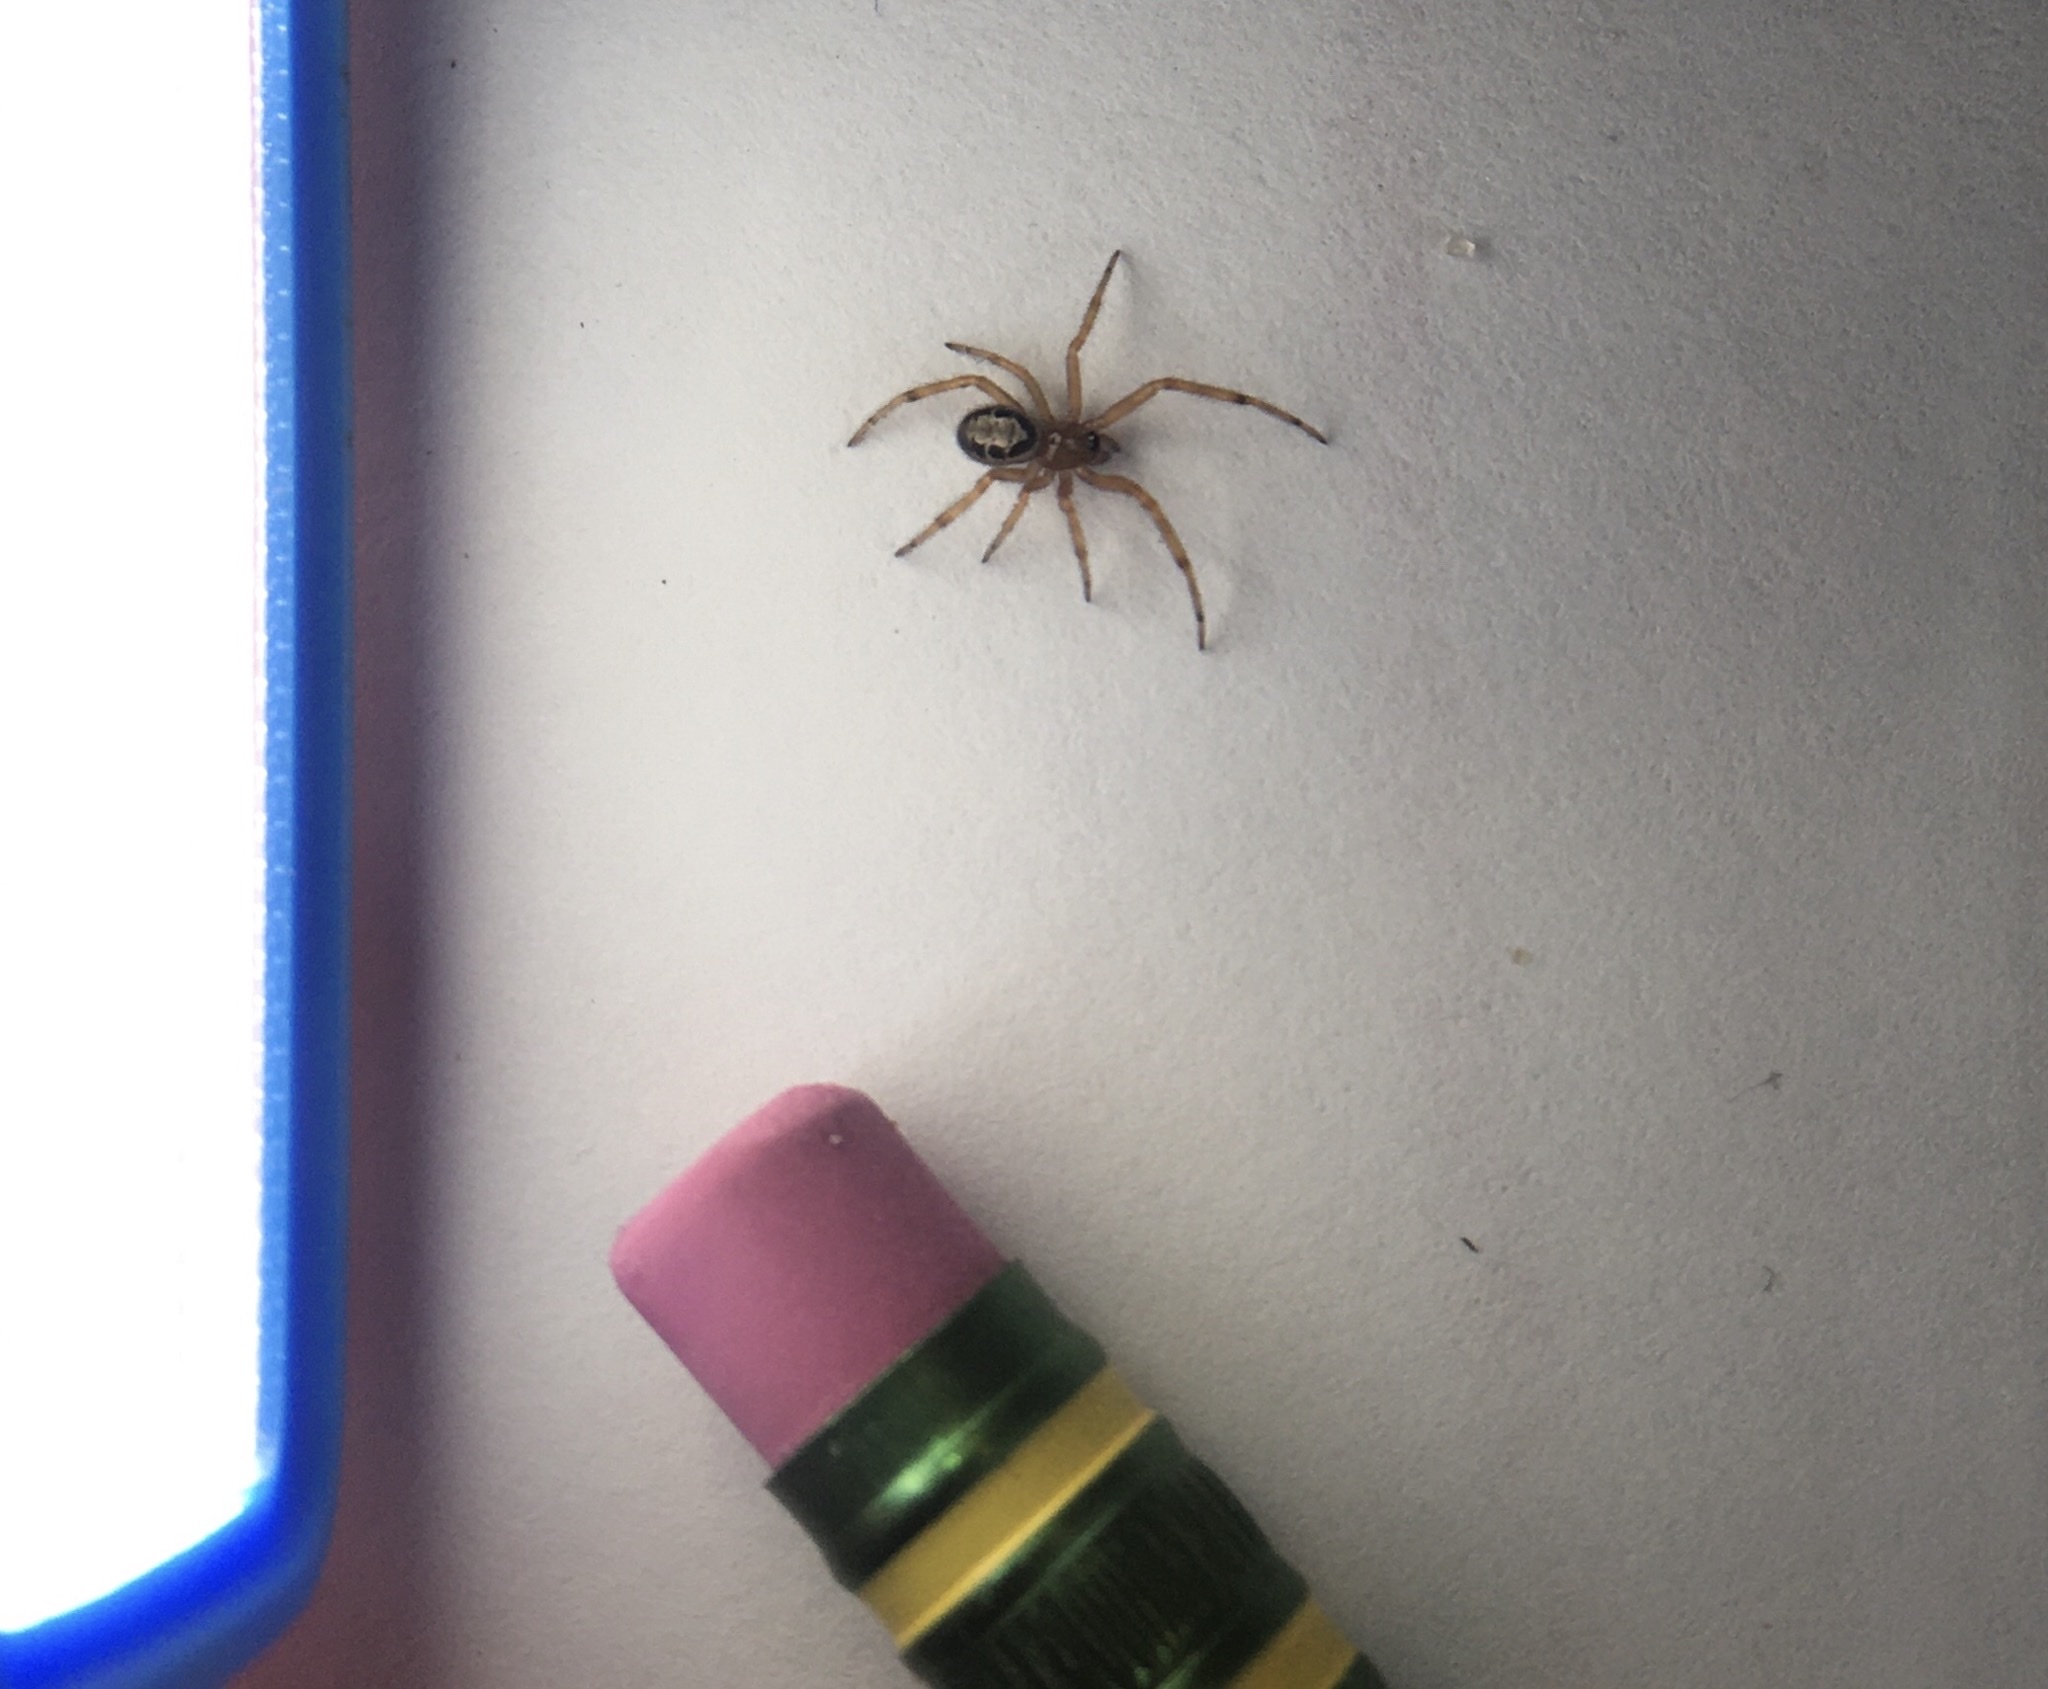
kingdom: Animalia
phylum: Arthropoda
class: Arachnida
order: Araneae
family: Theridiidae
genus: Steatoda
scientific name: Steatoda nobilis
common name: Cobweb weaver
